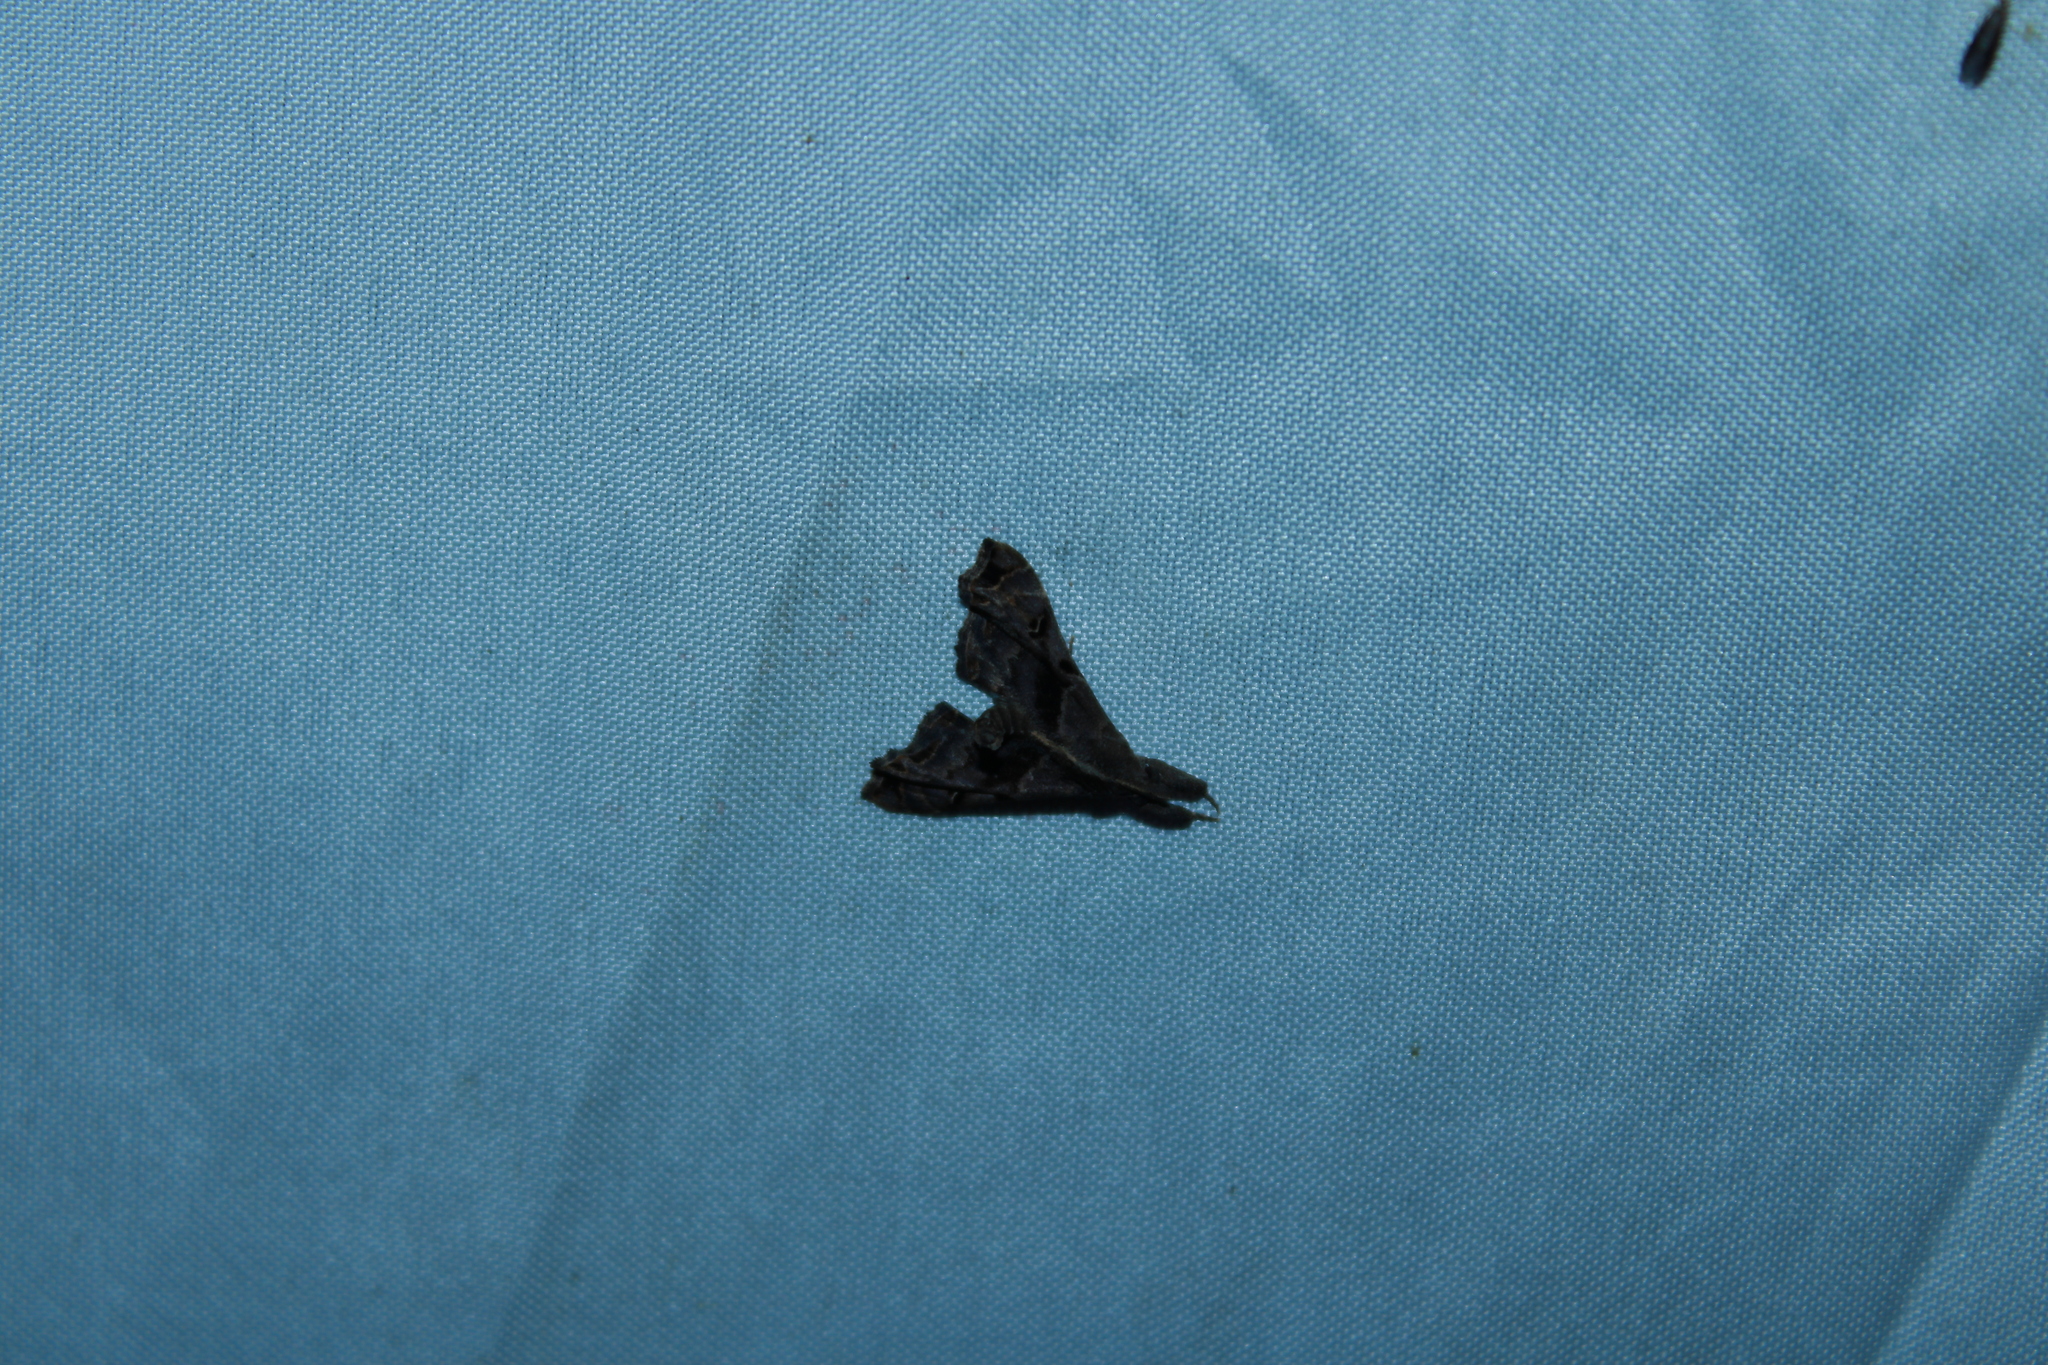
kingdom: Animalia
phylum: Arthropoda
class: Insecta
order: Lepidoptera
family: Erebidae
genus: Palthis
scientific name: Palthis asopialis
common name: Faint-spotted palthis moth
